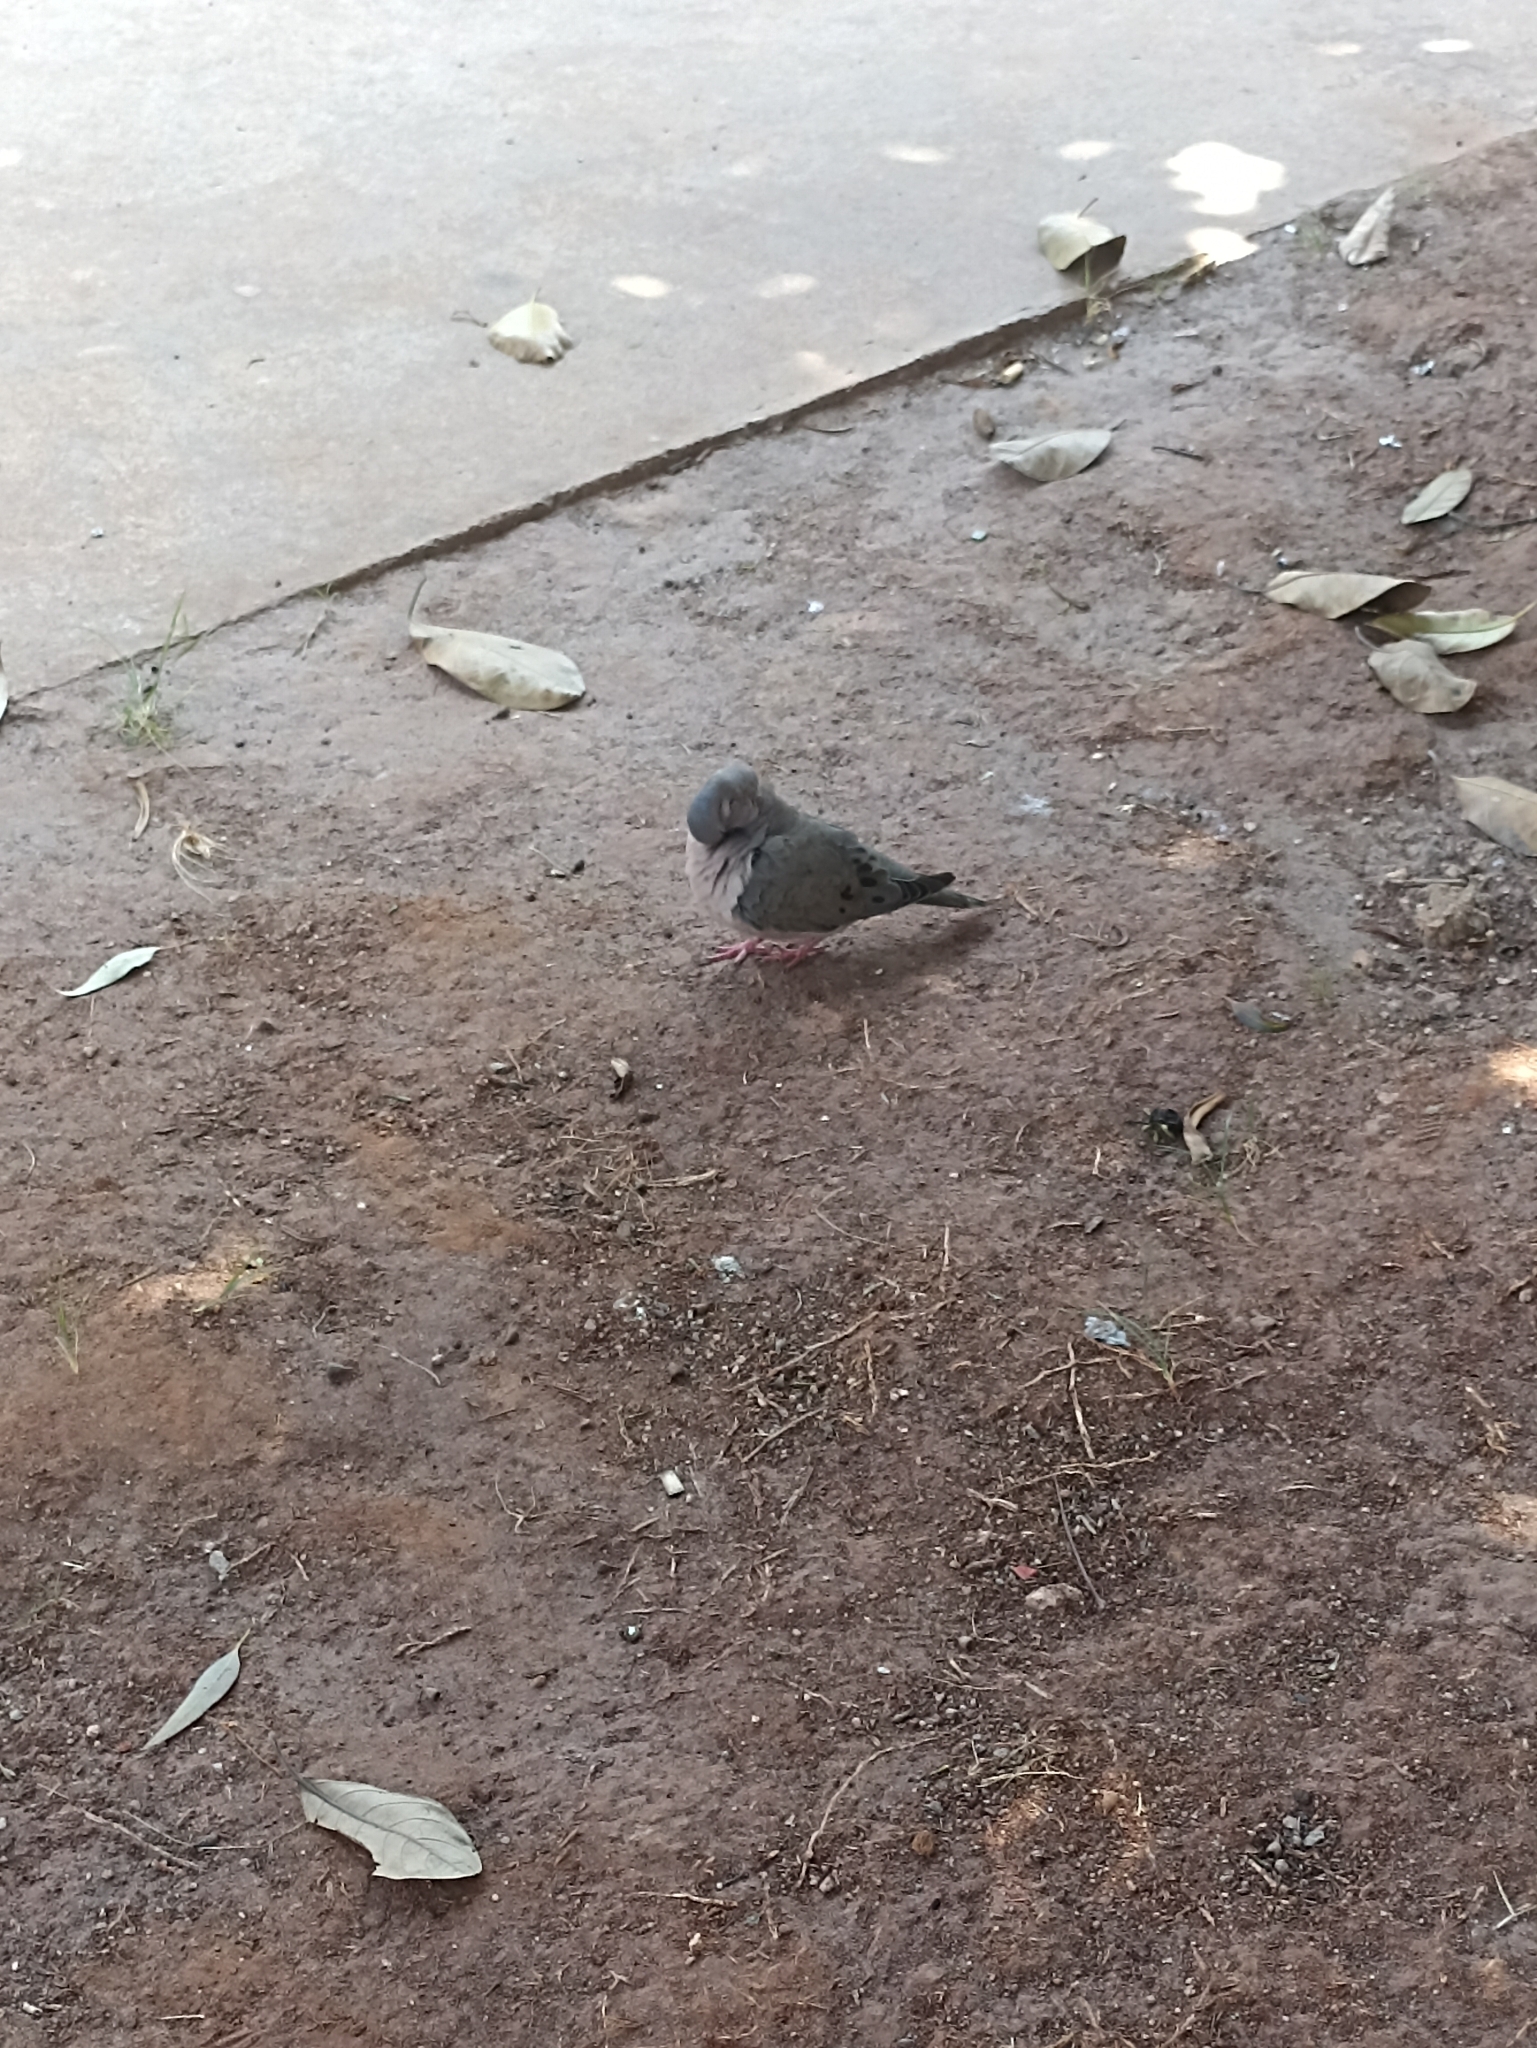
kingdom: Animalia
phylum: Chordata
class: Aves
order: Columbiformes
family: Columbidae
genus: Zenaida
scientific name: Zenaida auriculata
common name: Eared dove
